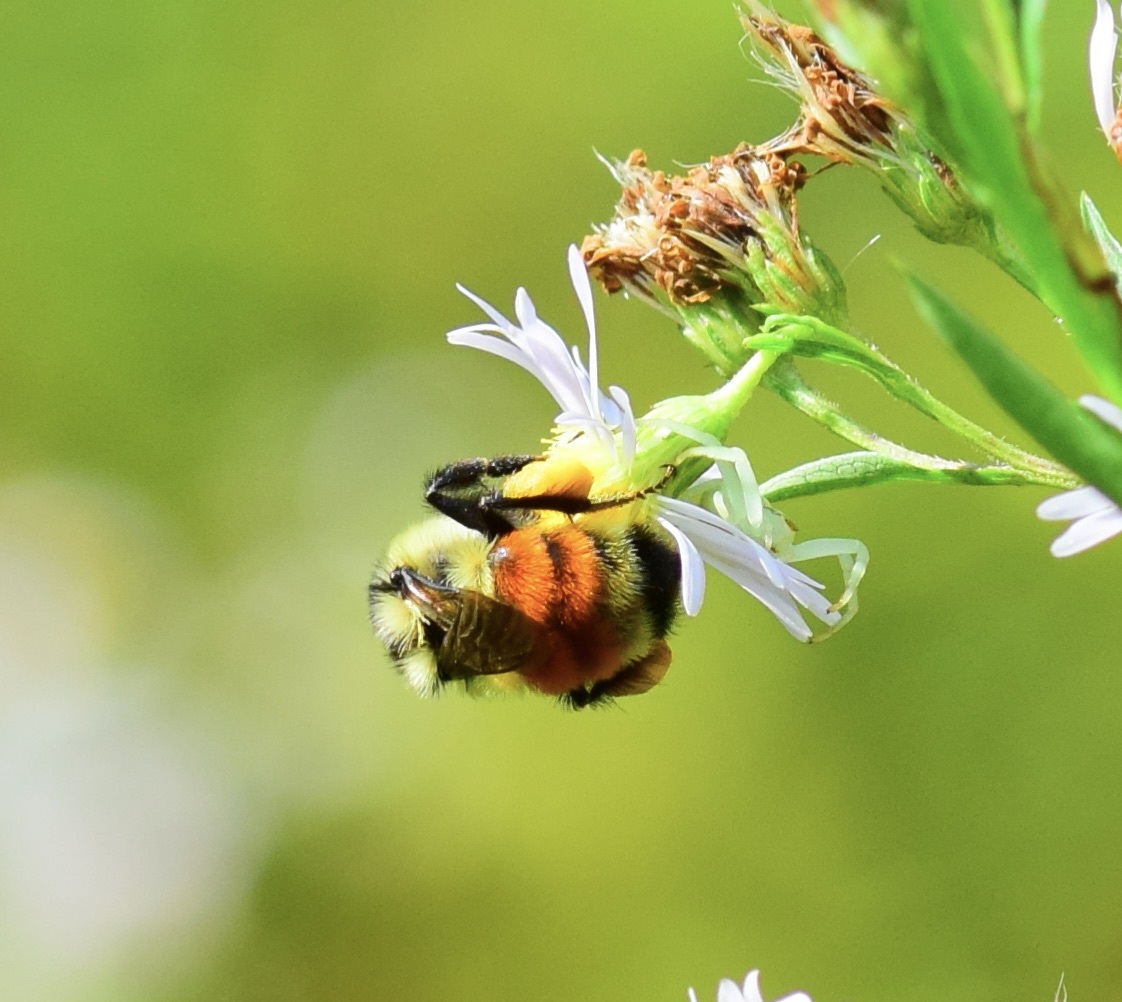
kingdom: Animalia
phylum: Arthropoda
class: Insecta
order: Hymenoptera
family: Apidae
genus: Bombus
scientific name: Bombus ternarius
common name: Tri-colored bumble bee
